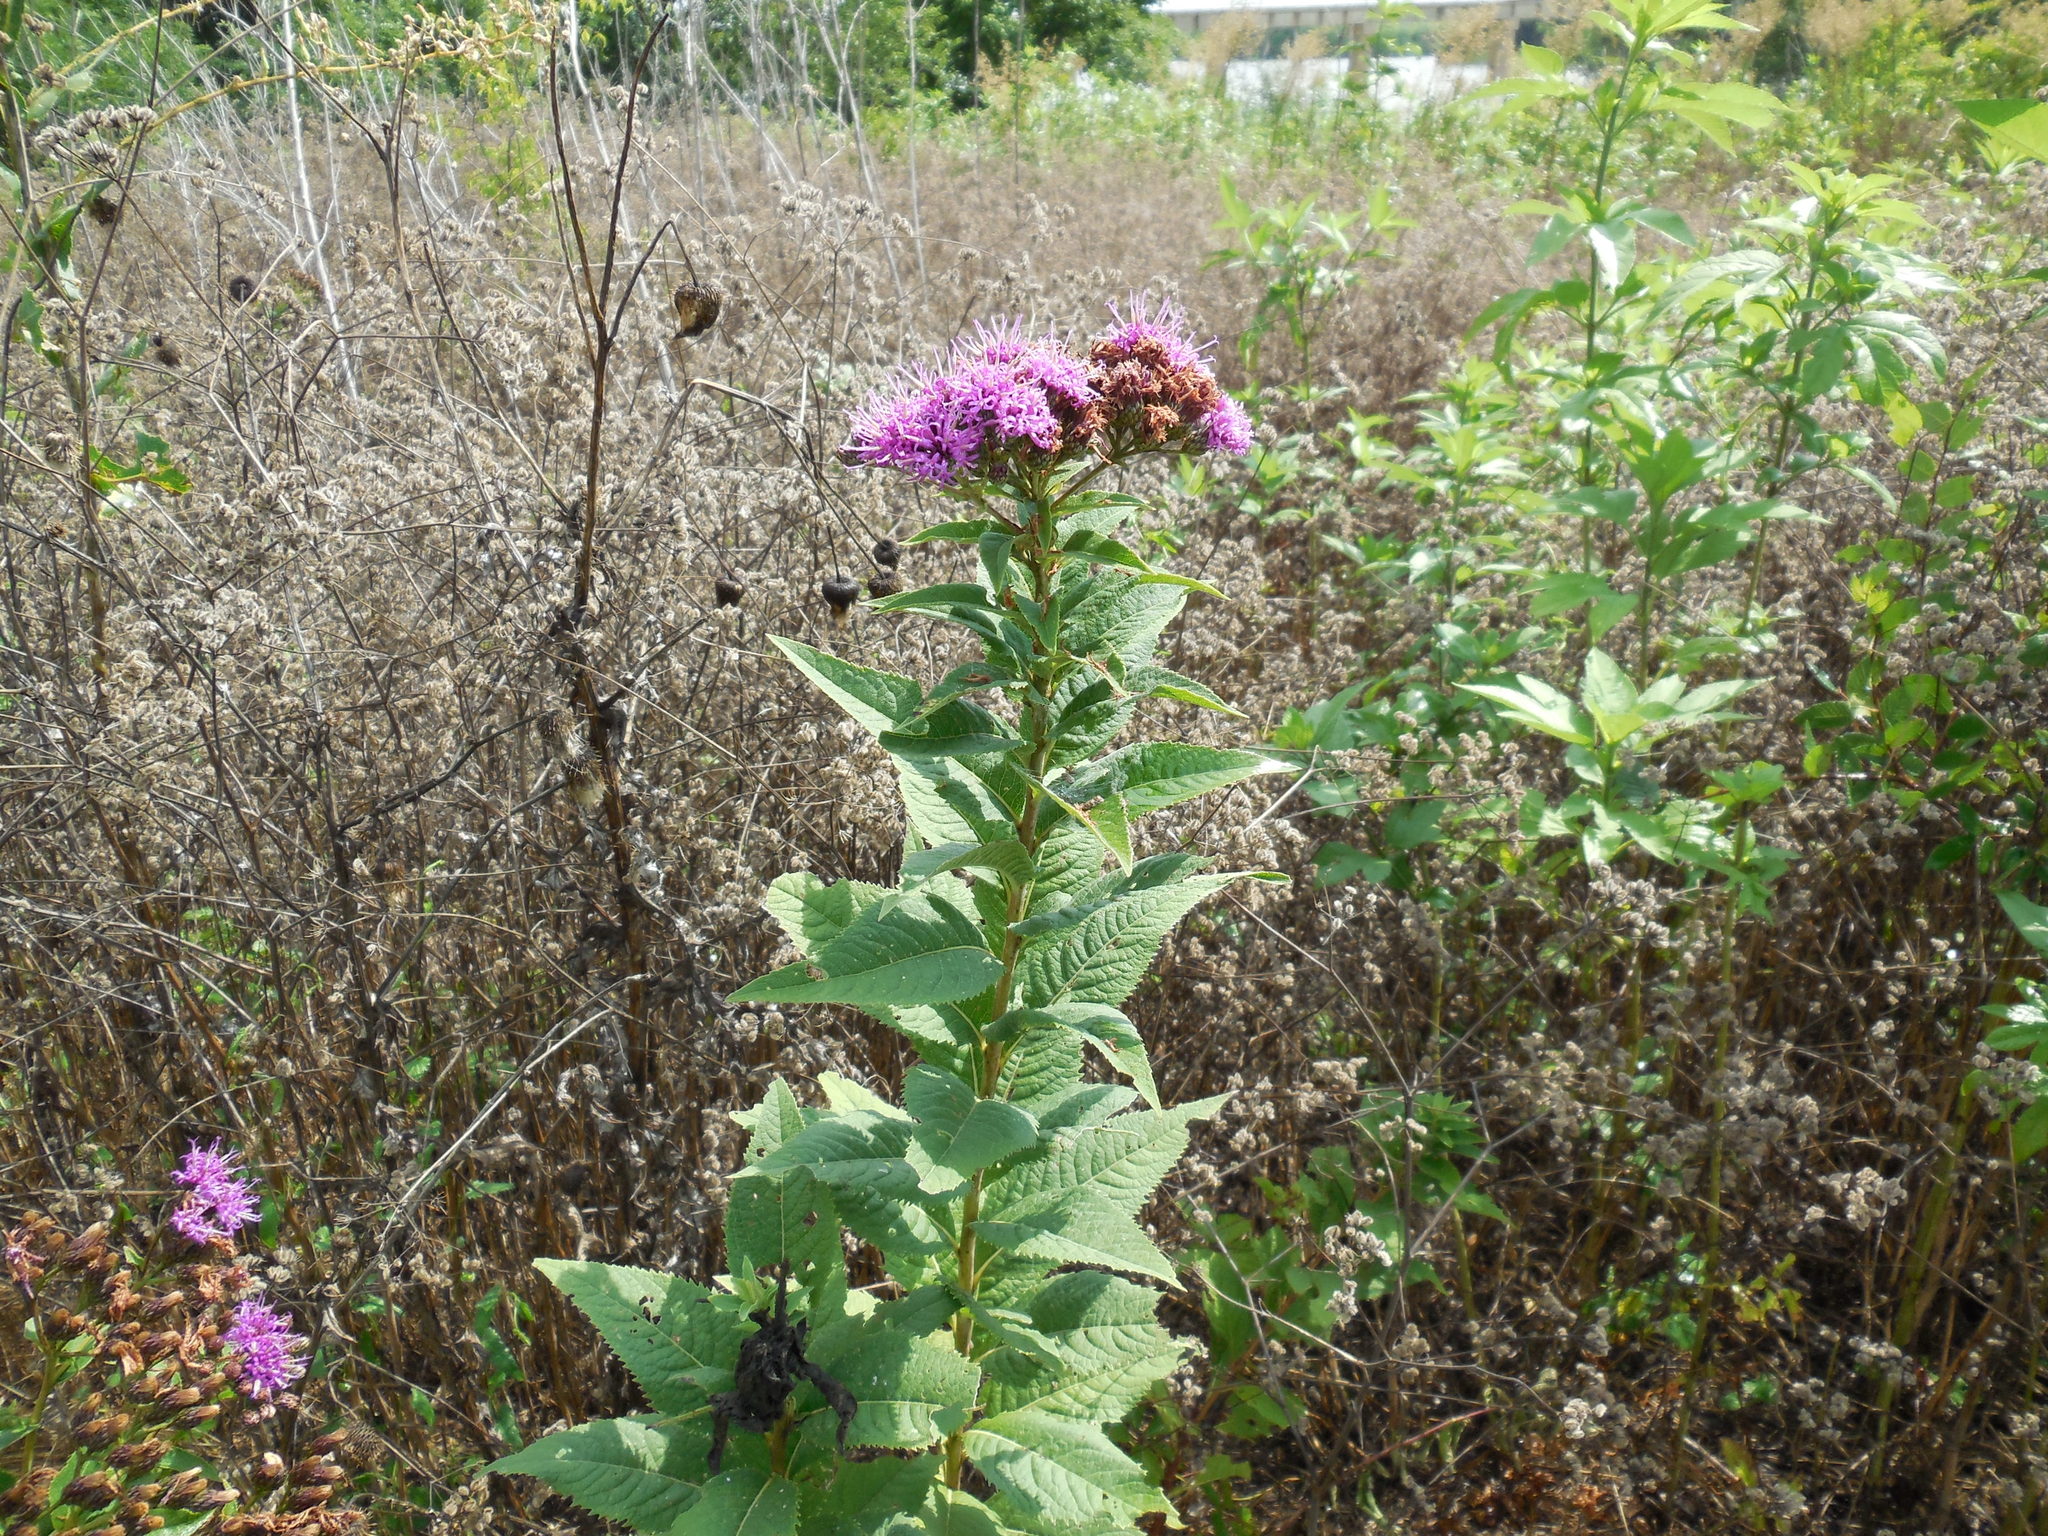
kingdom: Plantae
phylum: Tracheophyta
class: Magnoliopsida
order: Asterales
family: Asteraceae
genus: Vernonia
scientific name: Vernonia baldwinii
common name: Western ironweed
